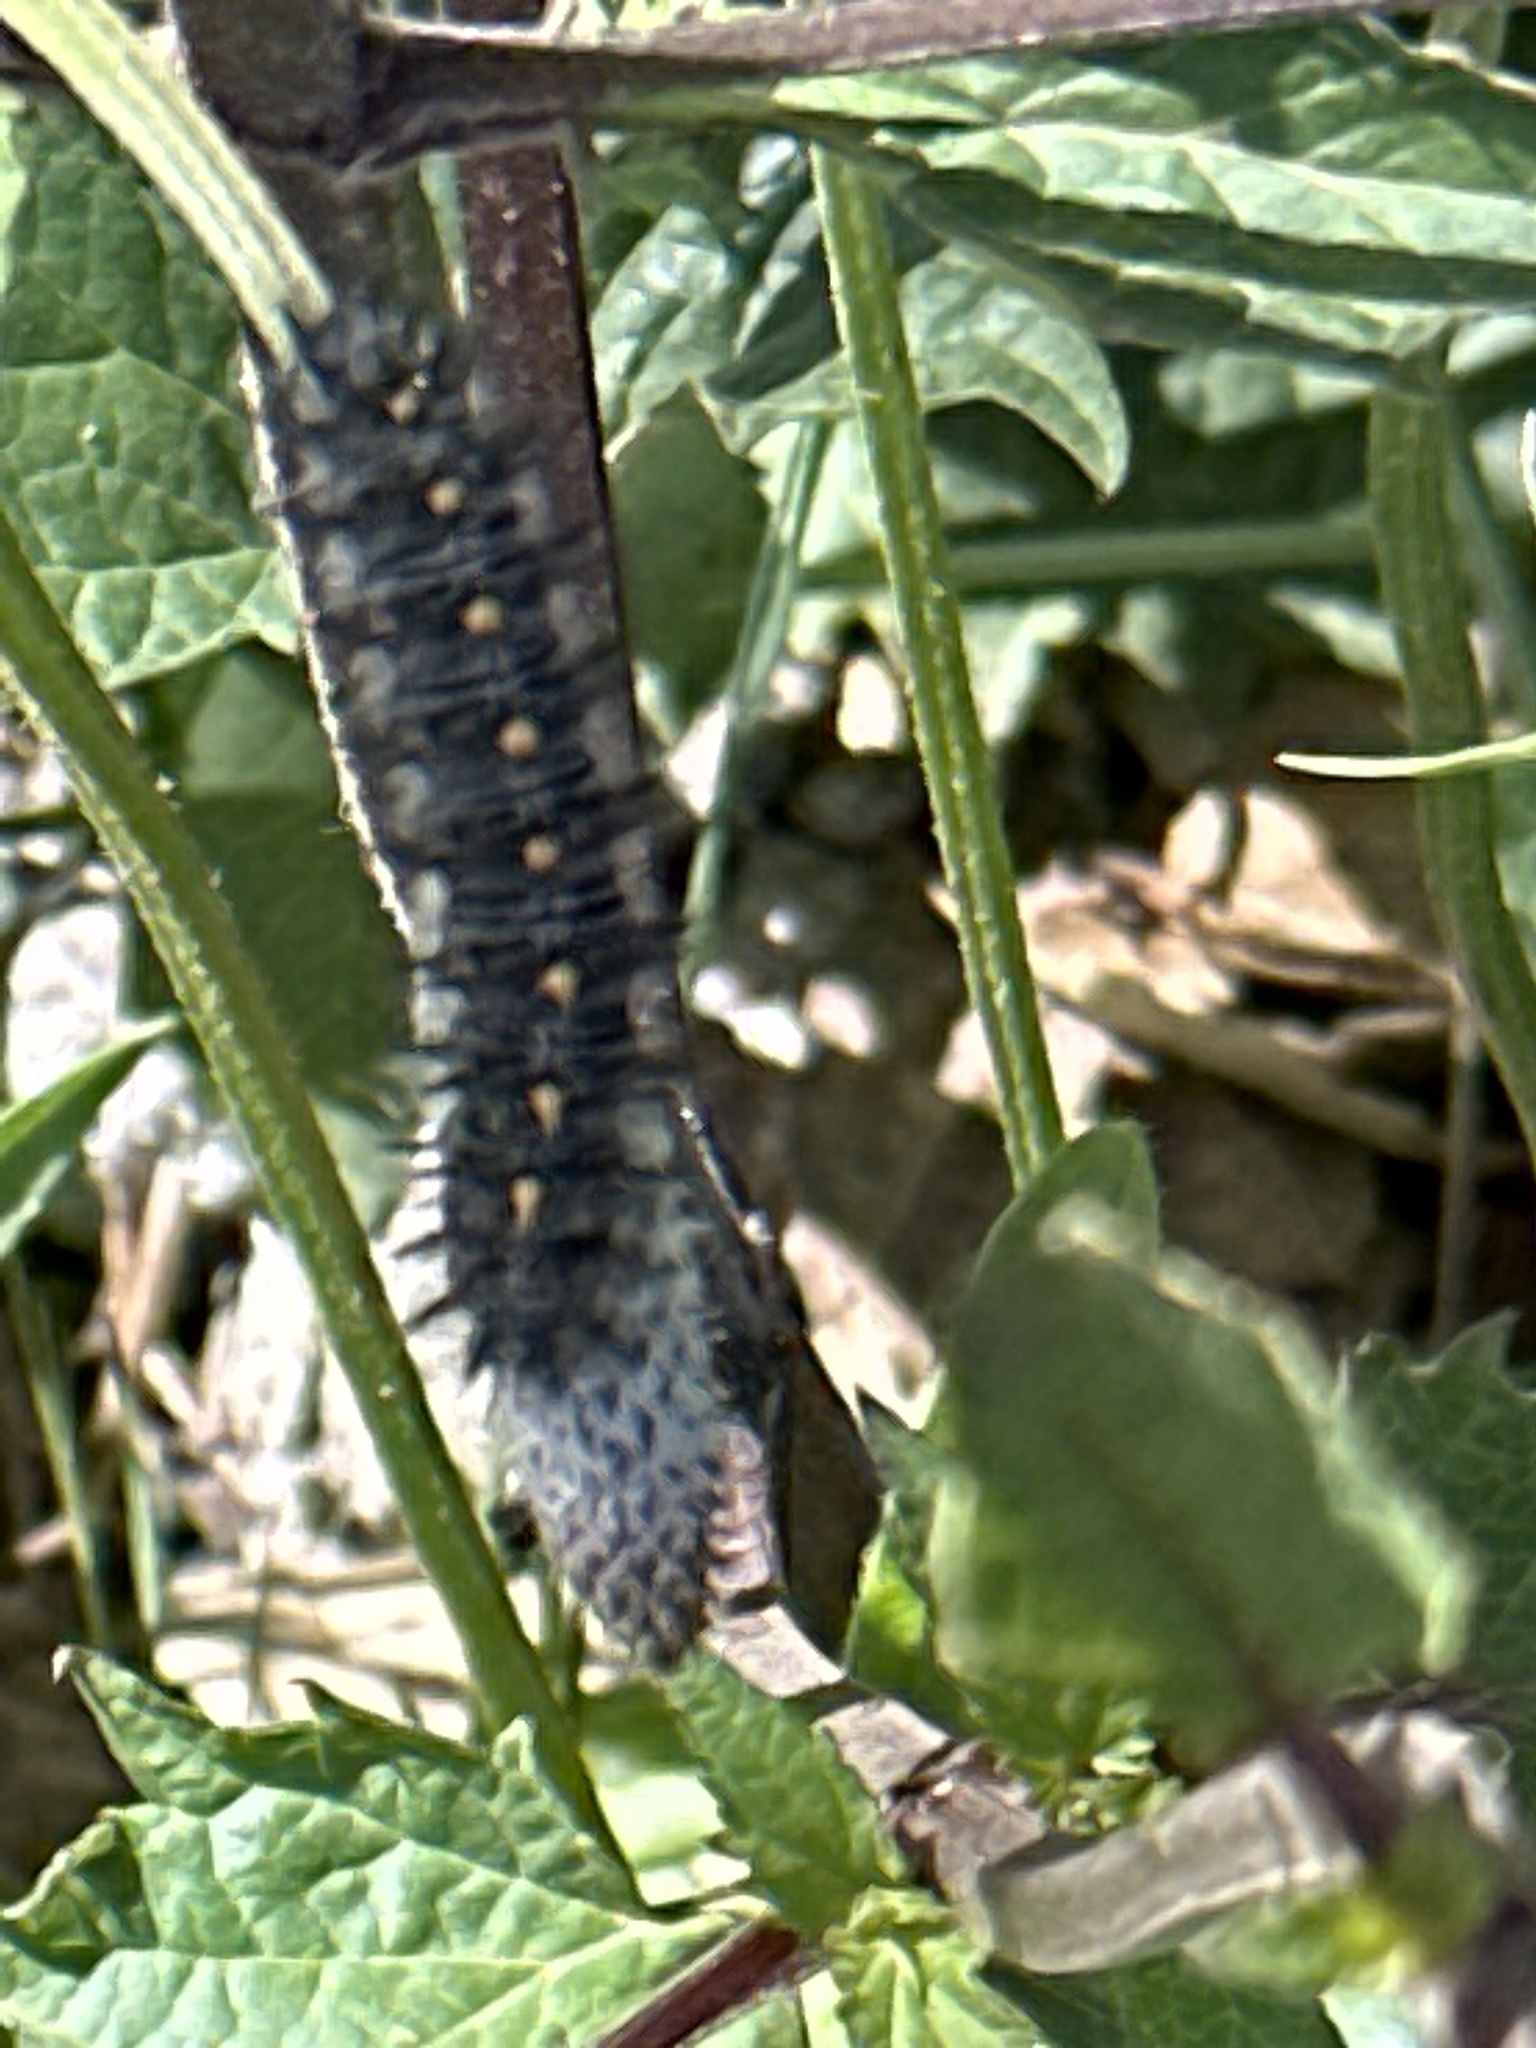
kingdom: Animalia
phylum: Arthropoda
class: Insecta
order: Lepidoptera
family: Nymphalidae
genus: Occidryas
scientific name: Occidryas chalcedona
